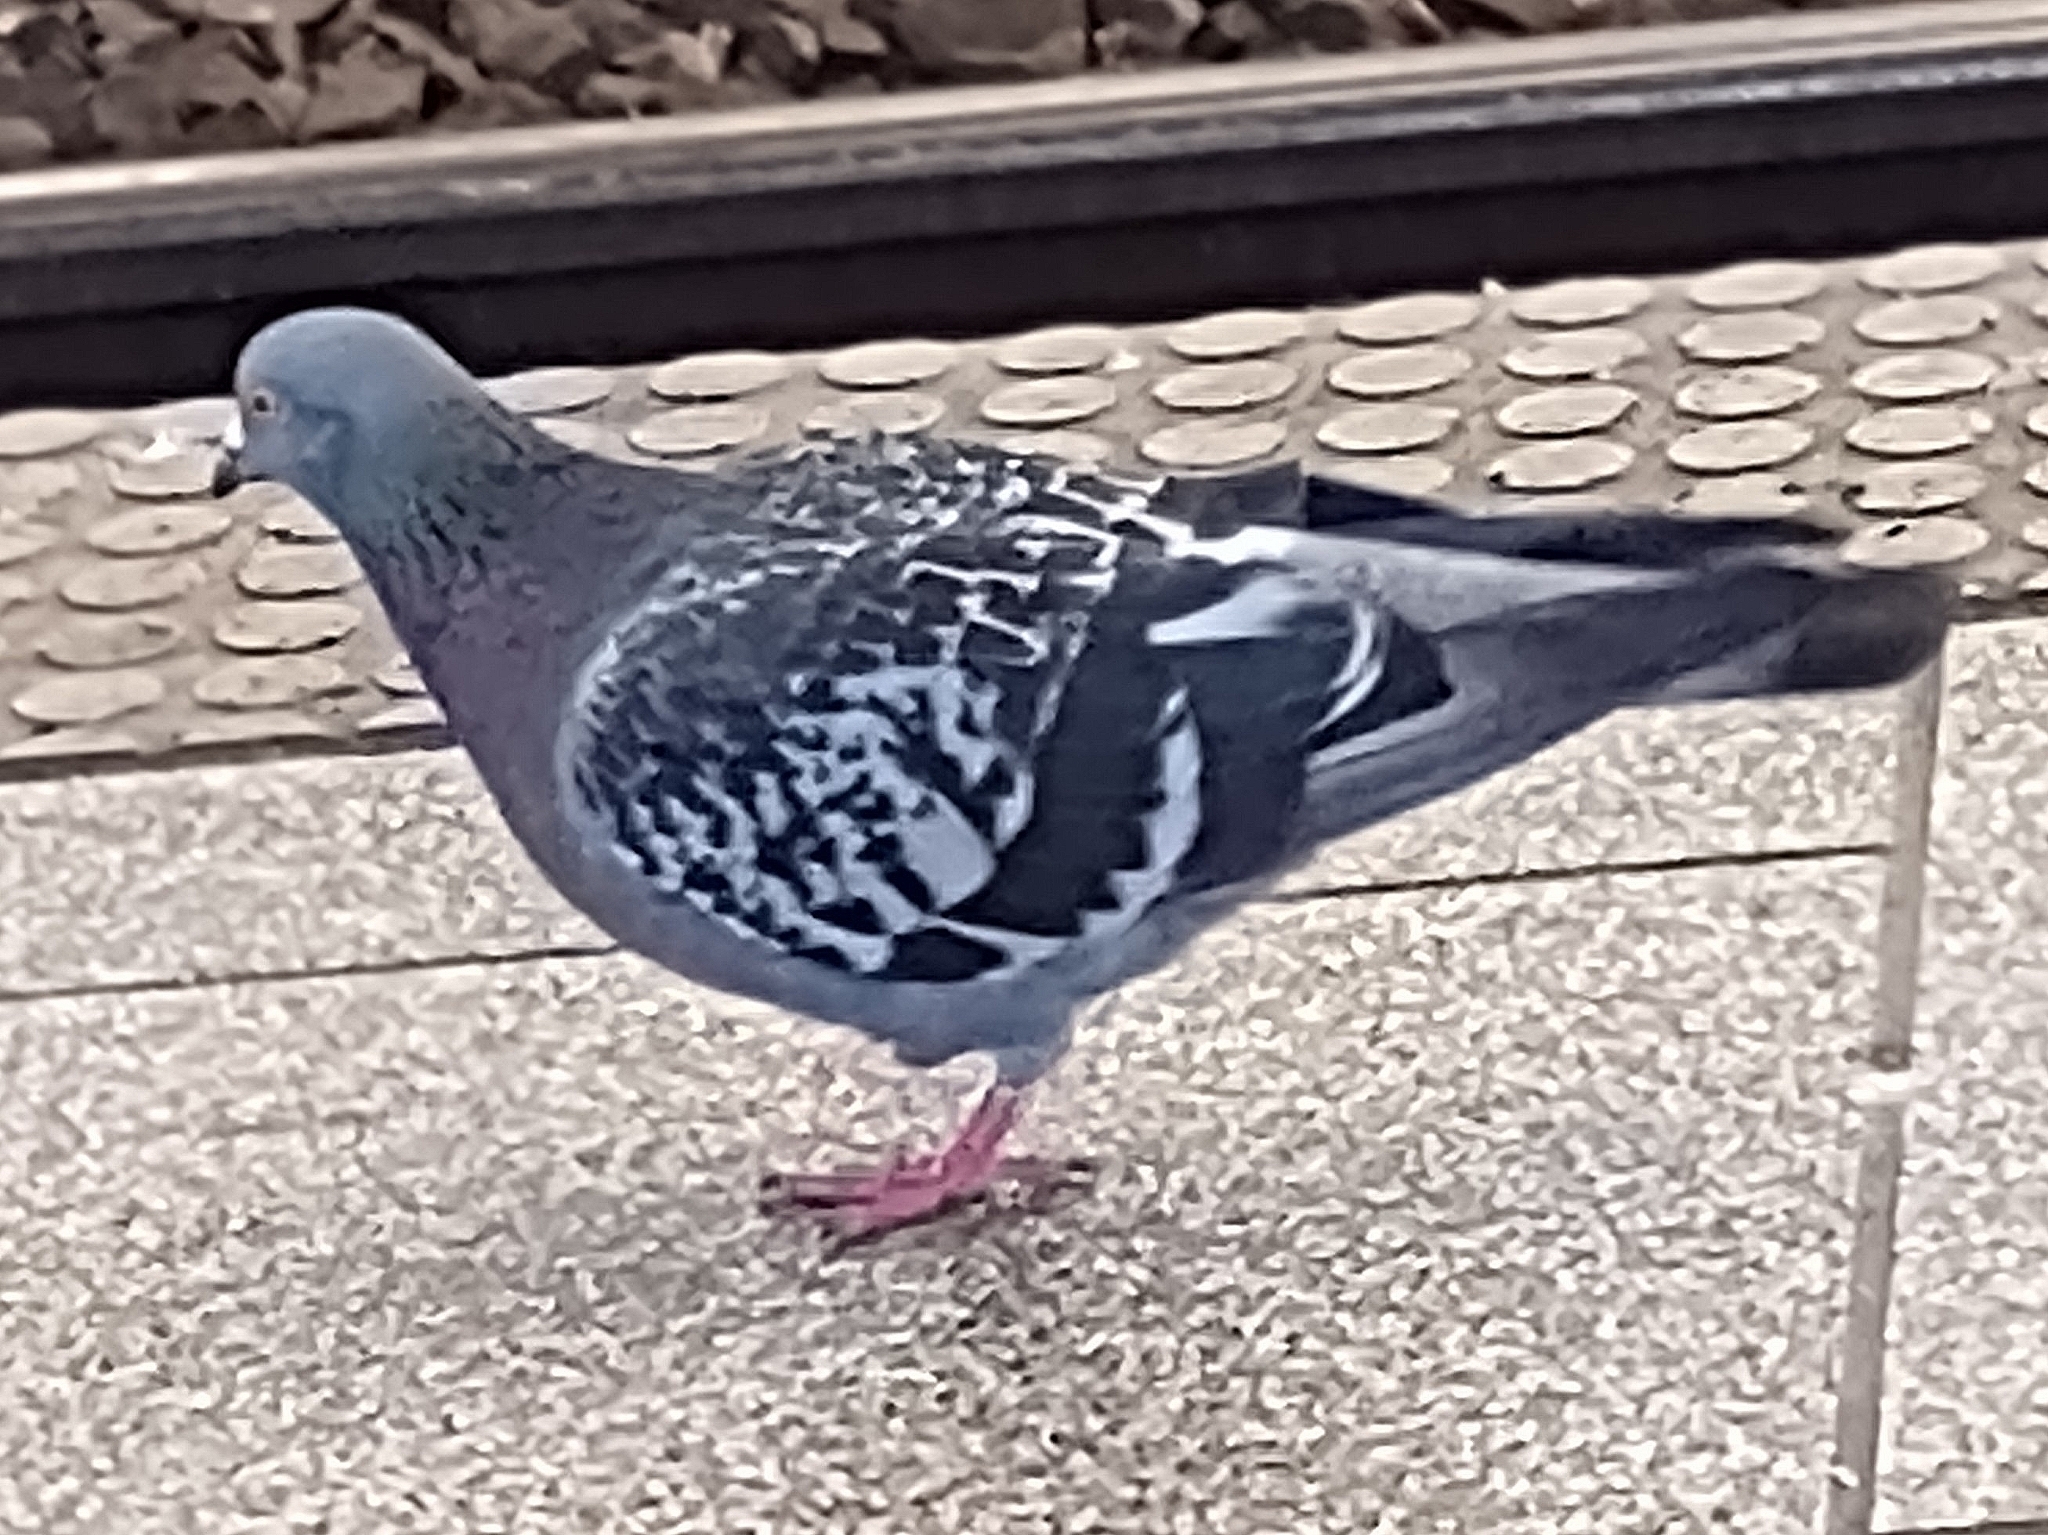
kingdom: Animalia
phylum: Chordata
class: Aves
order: Columbiformes
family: Columbidae
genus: Columba
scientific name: Columba livia
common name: Rock pigeon
